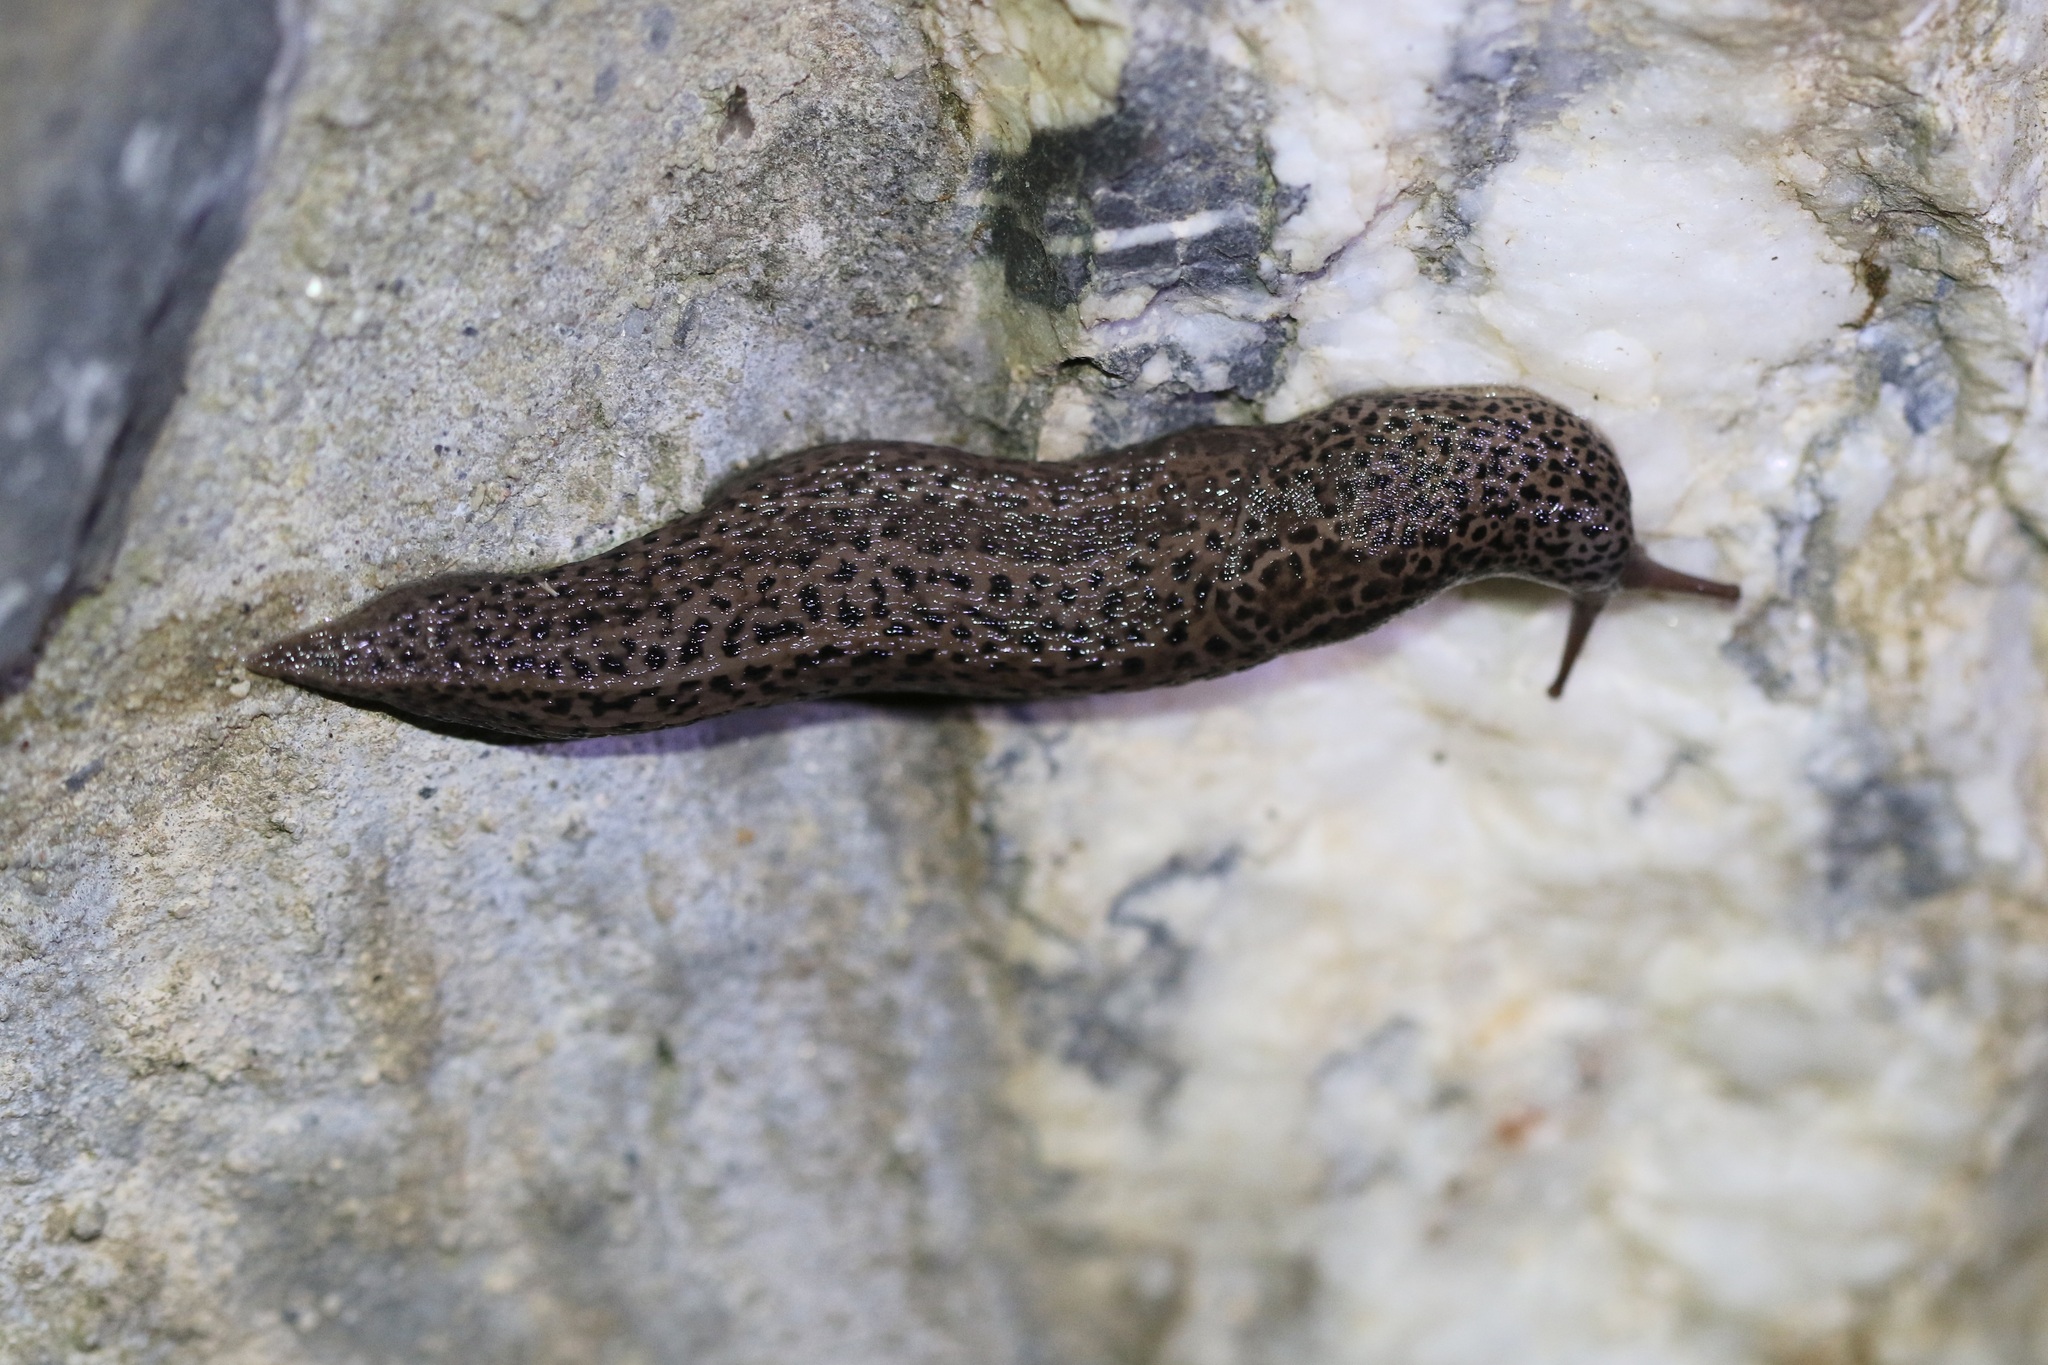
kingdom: Animalia
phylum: Mollusca
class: Gastropoda
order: Stylommatophora
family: Limacidae
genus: Limax
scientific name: Limax maximus
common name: Great grey slug
